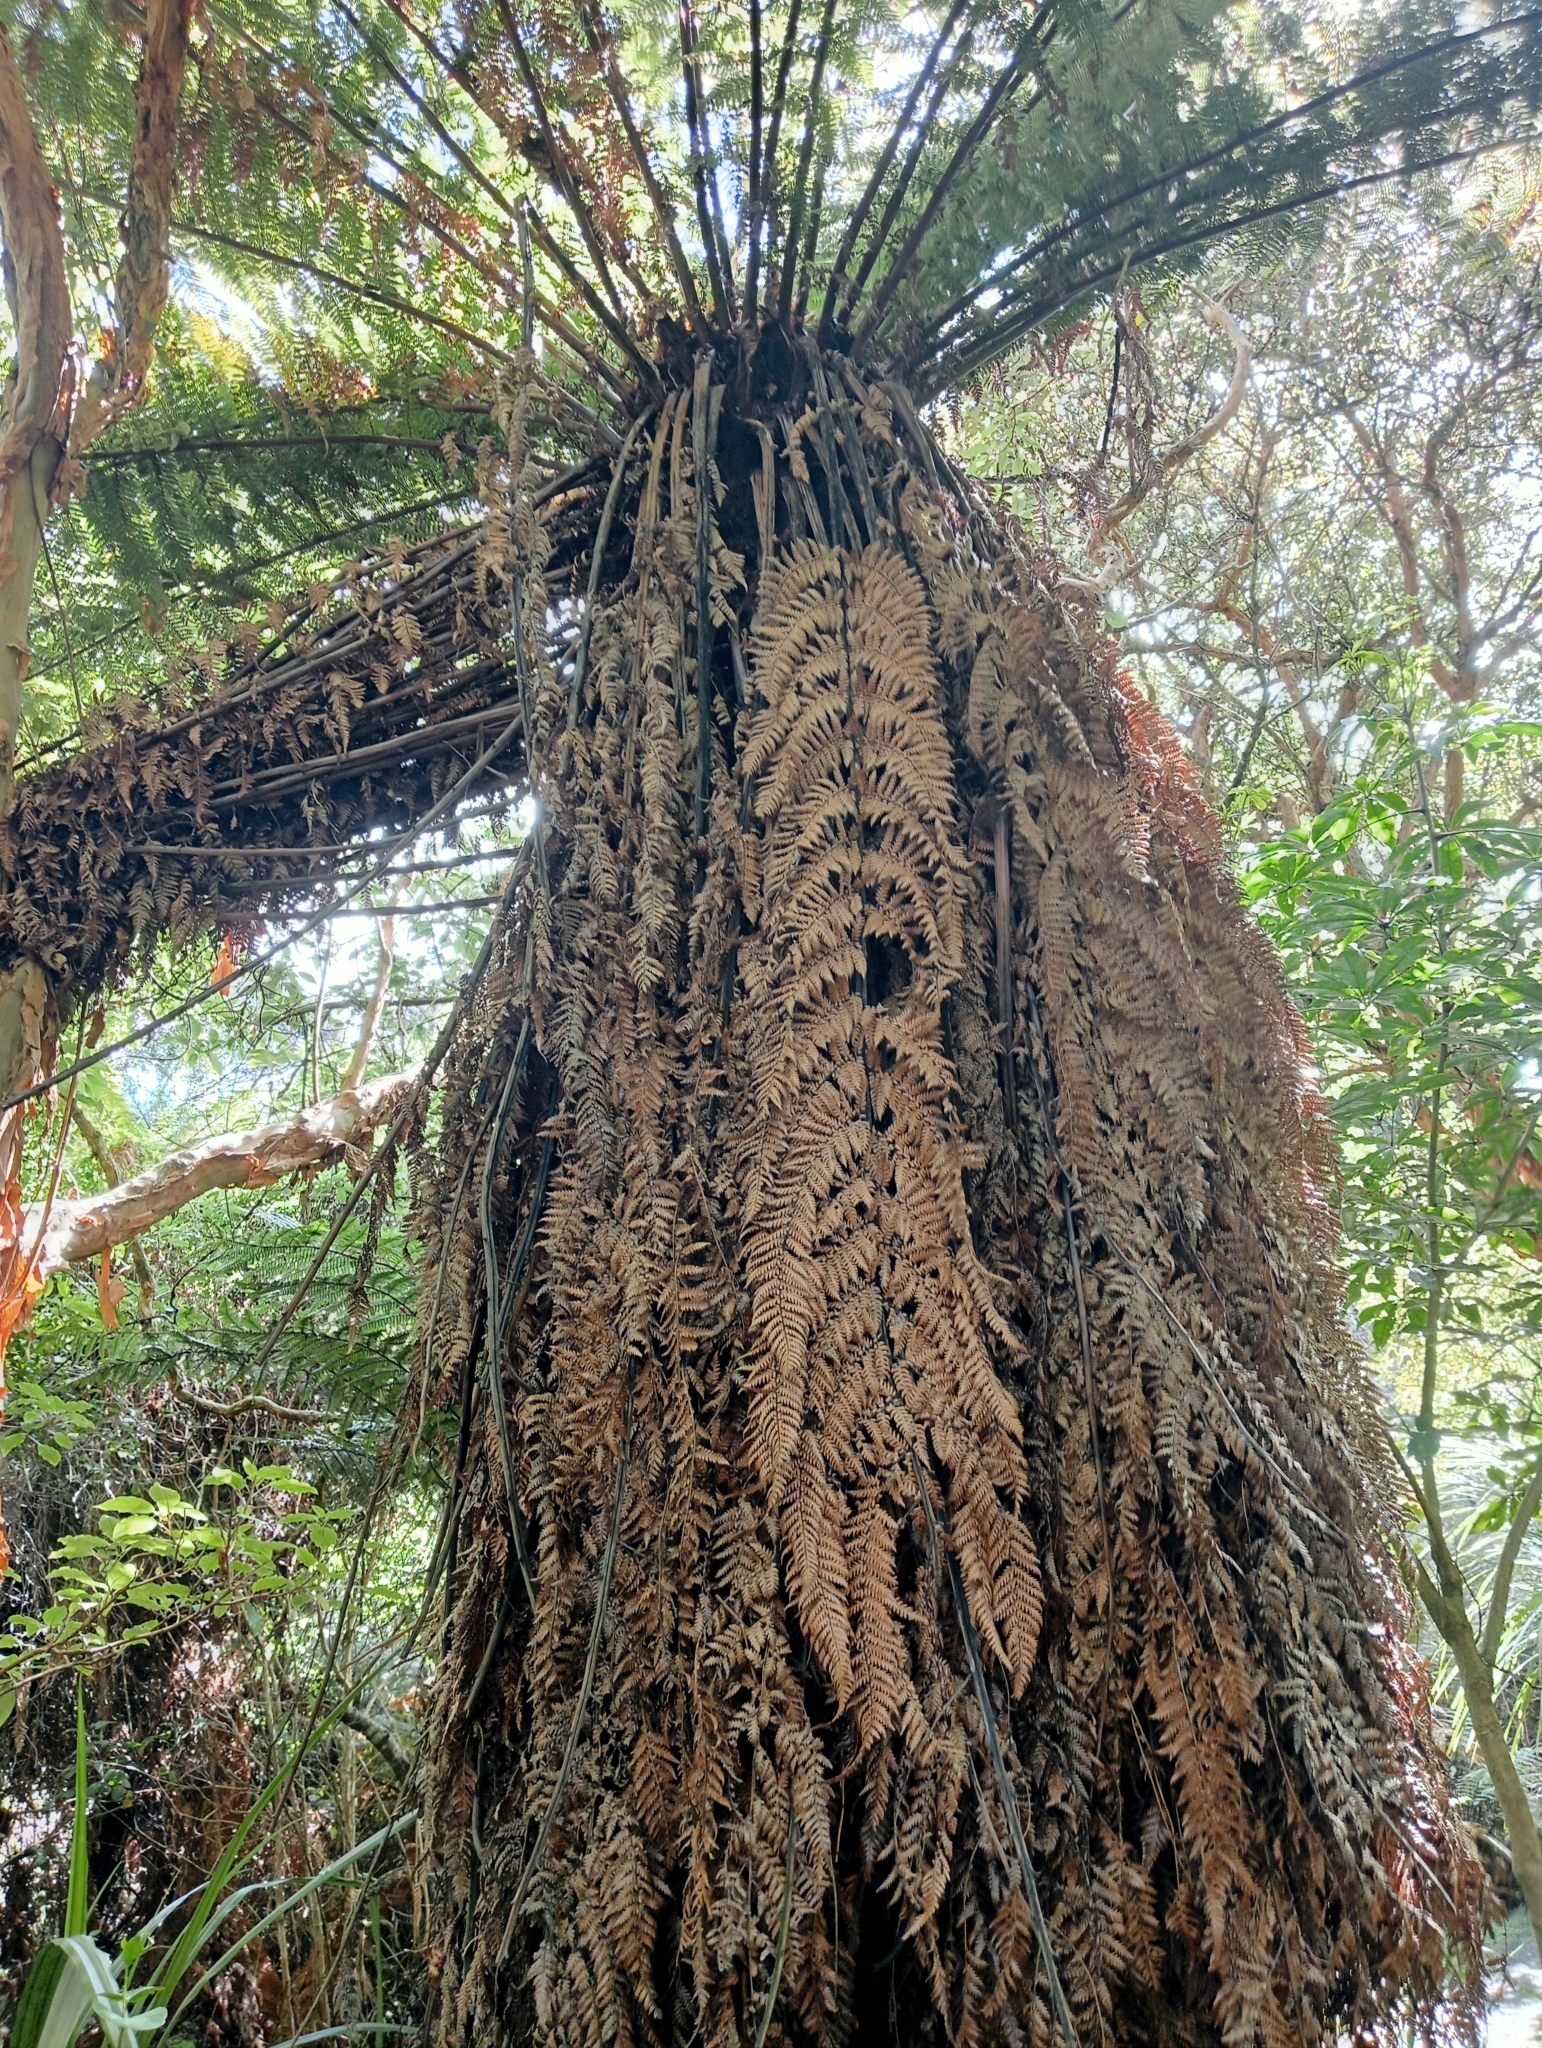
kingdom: Plantae
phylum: Tracheophyta
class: Polypodiopsida
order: Cyatheales
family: Dicksoniaceae
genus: Dicksonia
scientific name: Dicksonia fibrosa
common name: Golden tree fern
